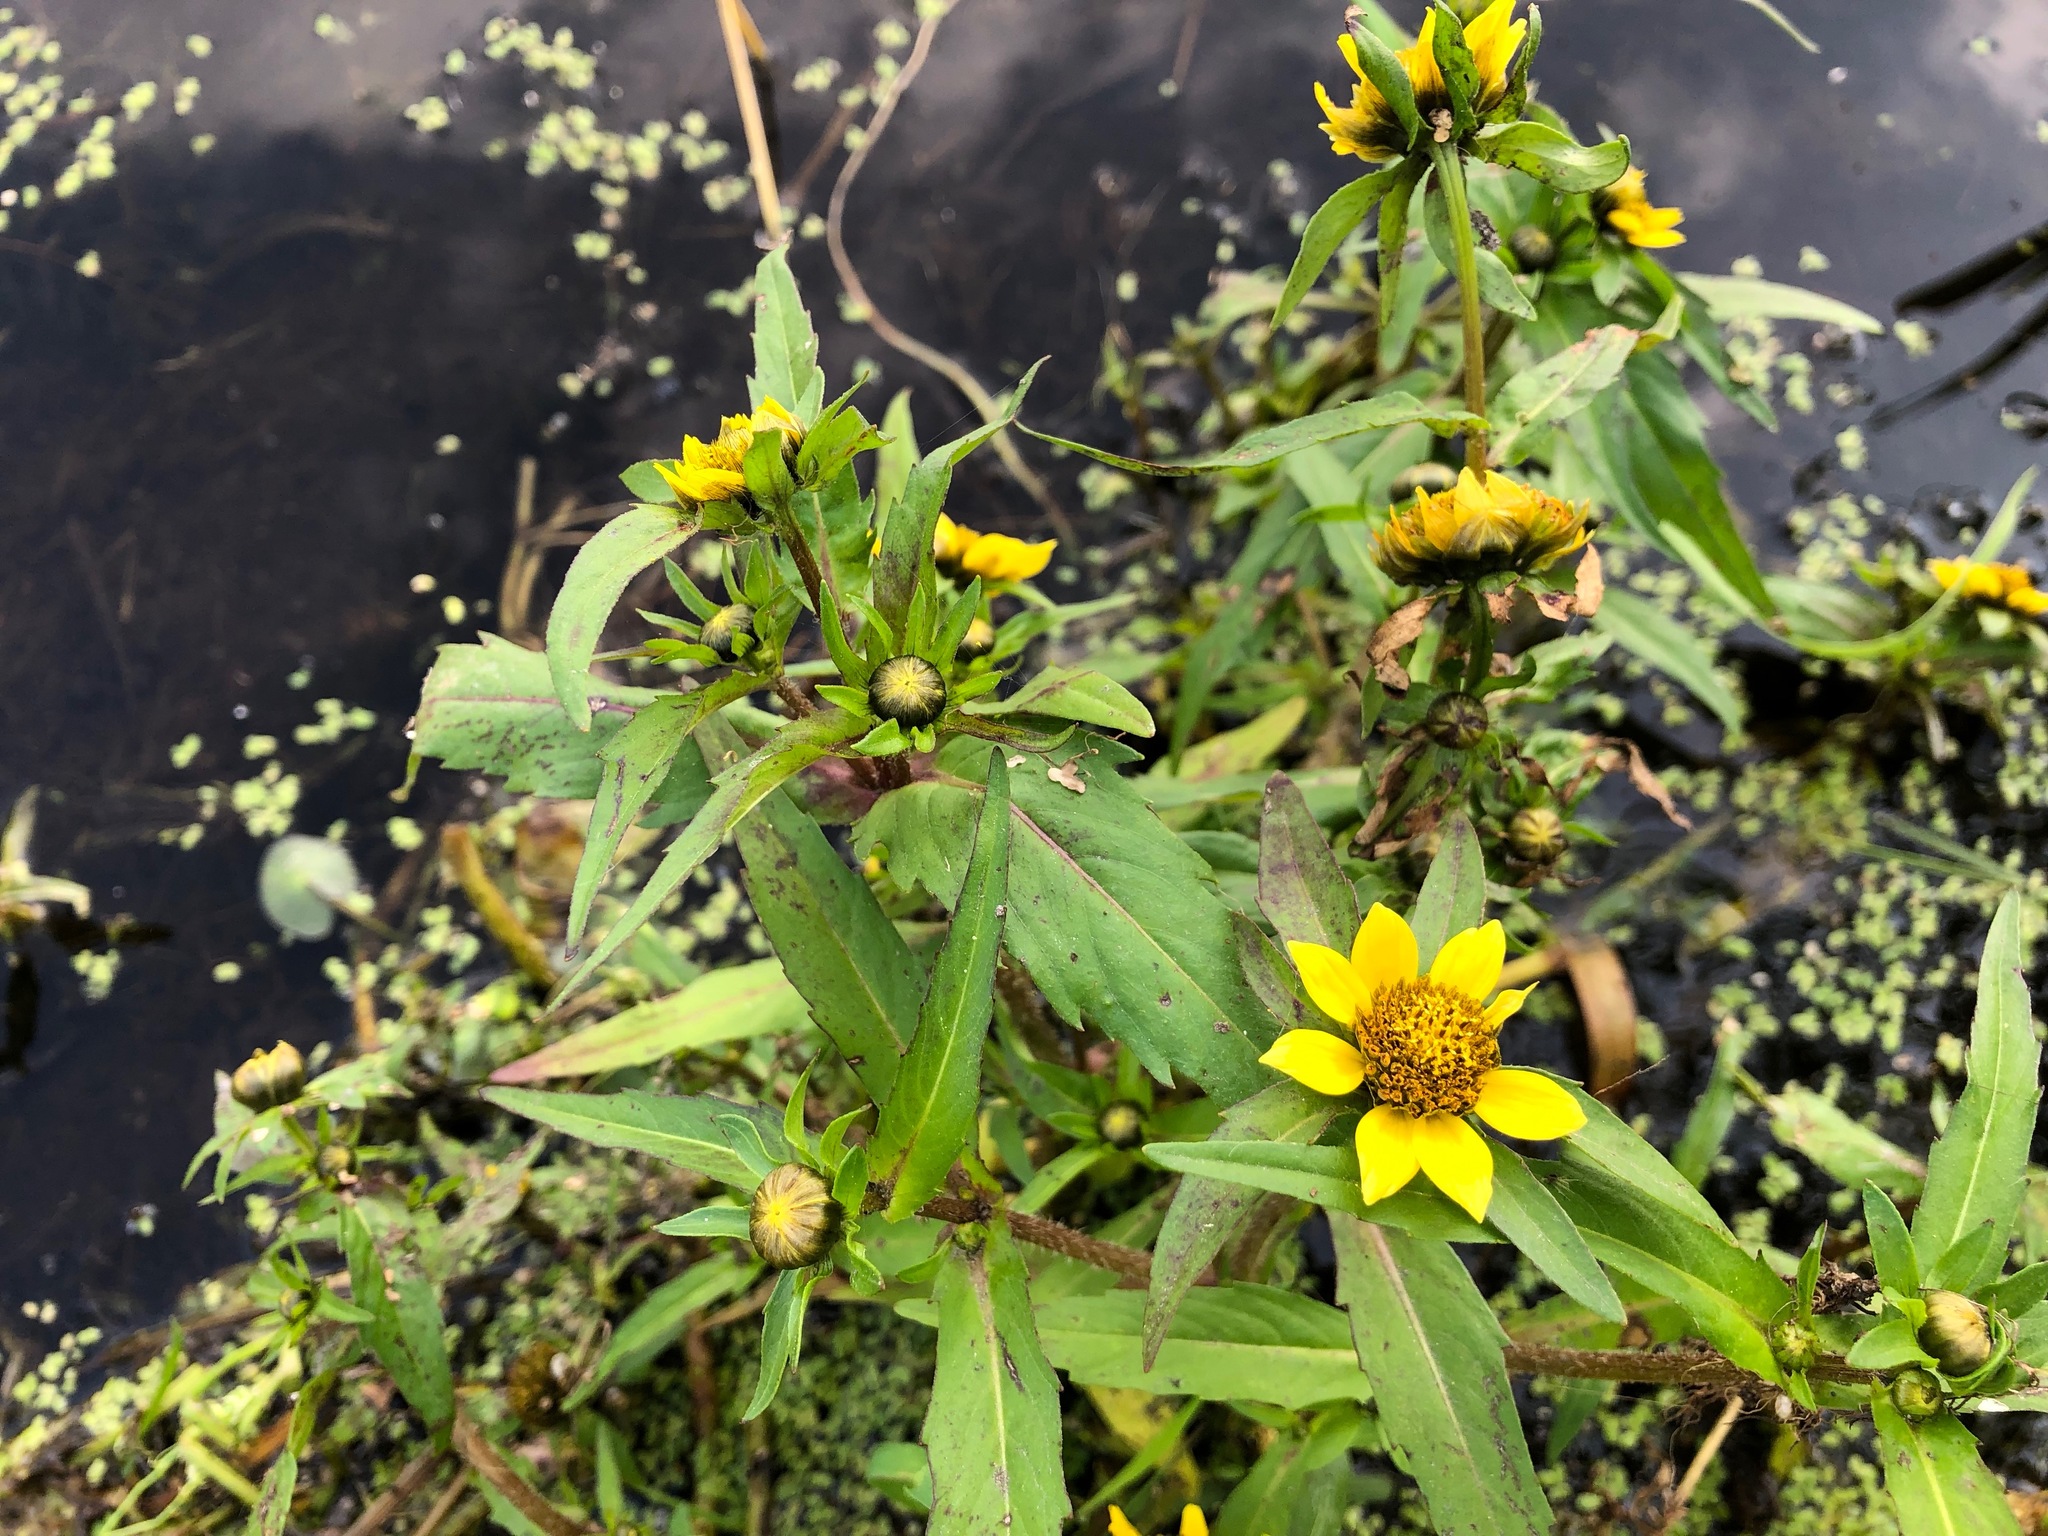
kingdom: Plantae
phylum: Tracheophyta
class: Magnoliopsida
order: Asterales
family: Asteraceae
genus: Bidens
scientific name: Bidens cernua
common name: Nodding bur-marigold
